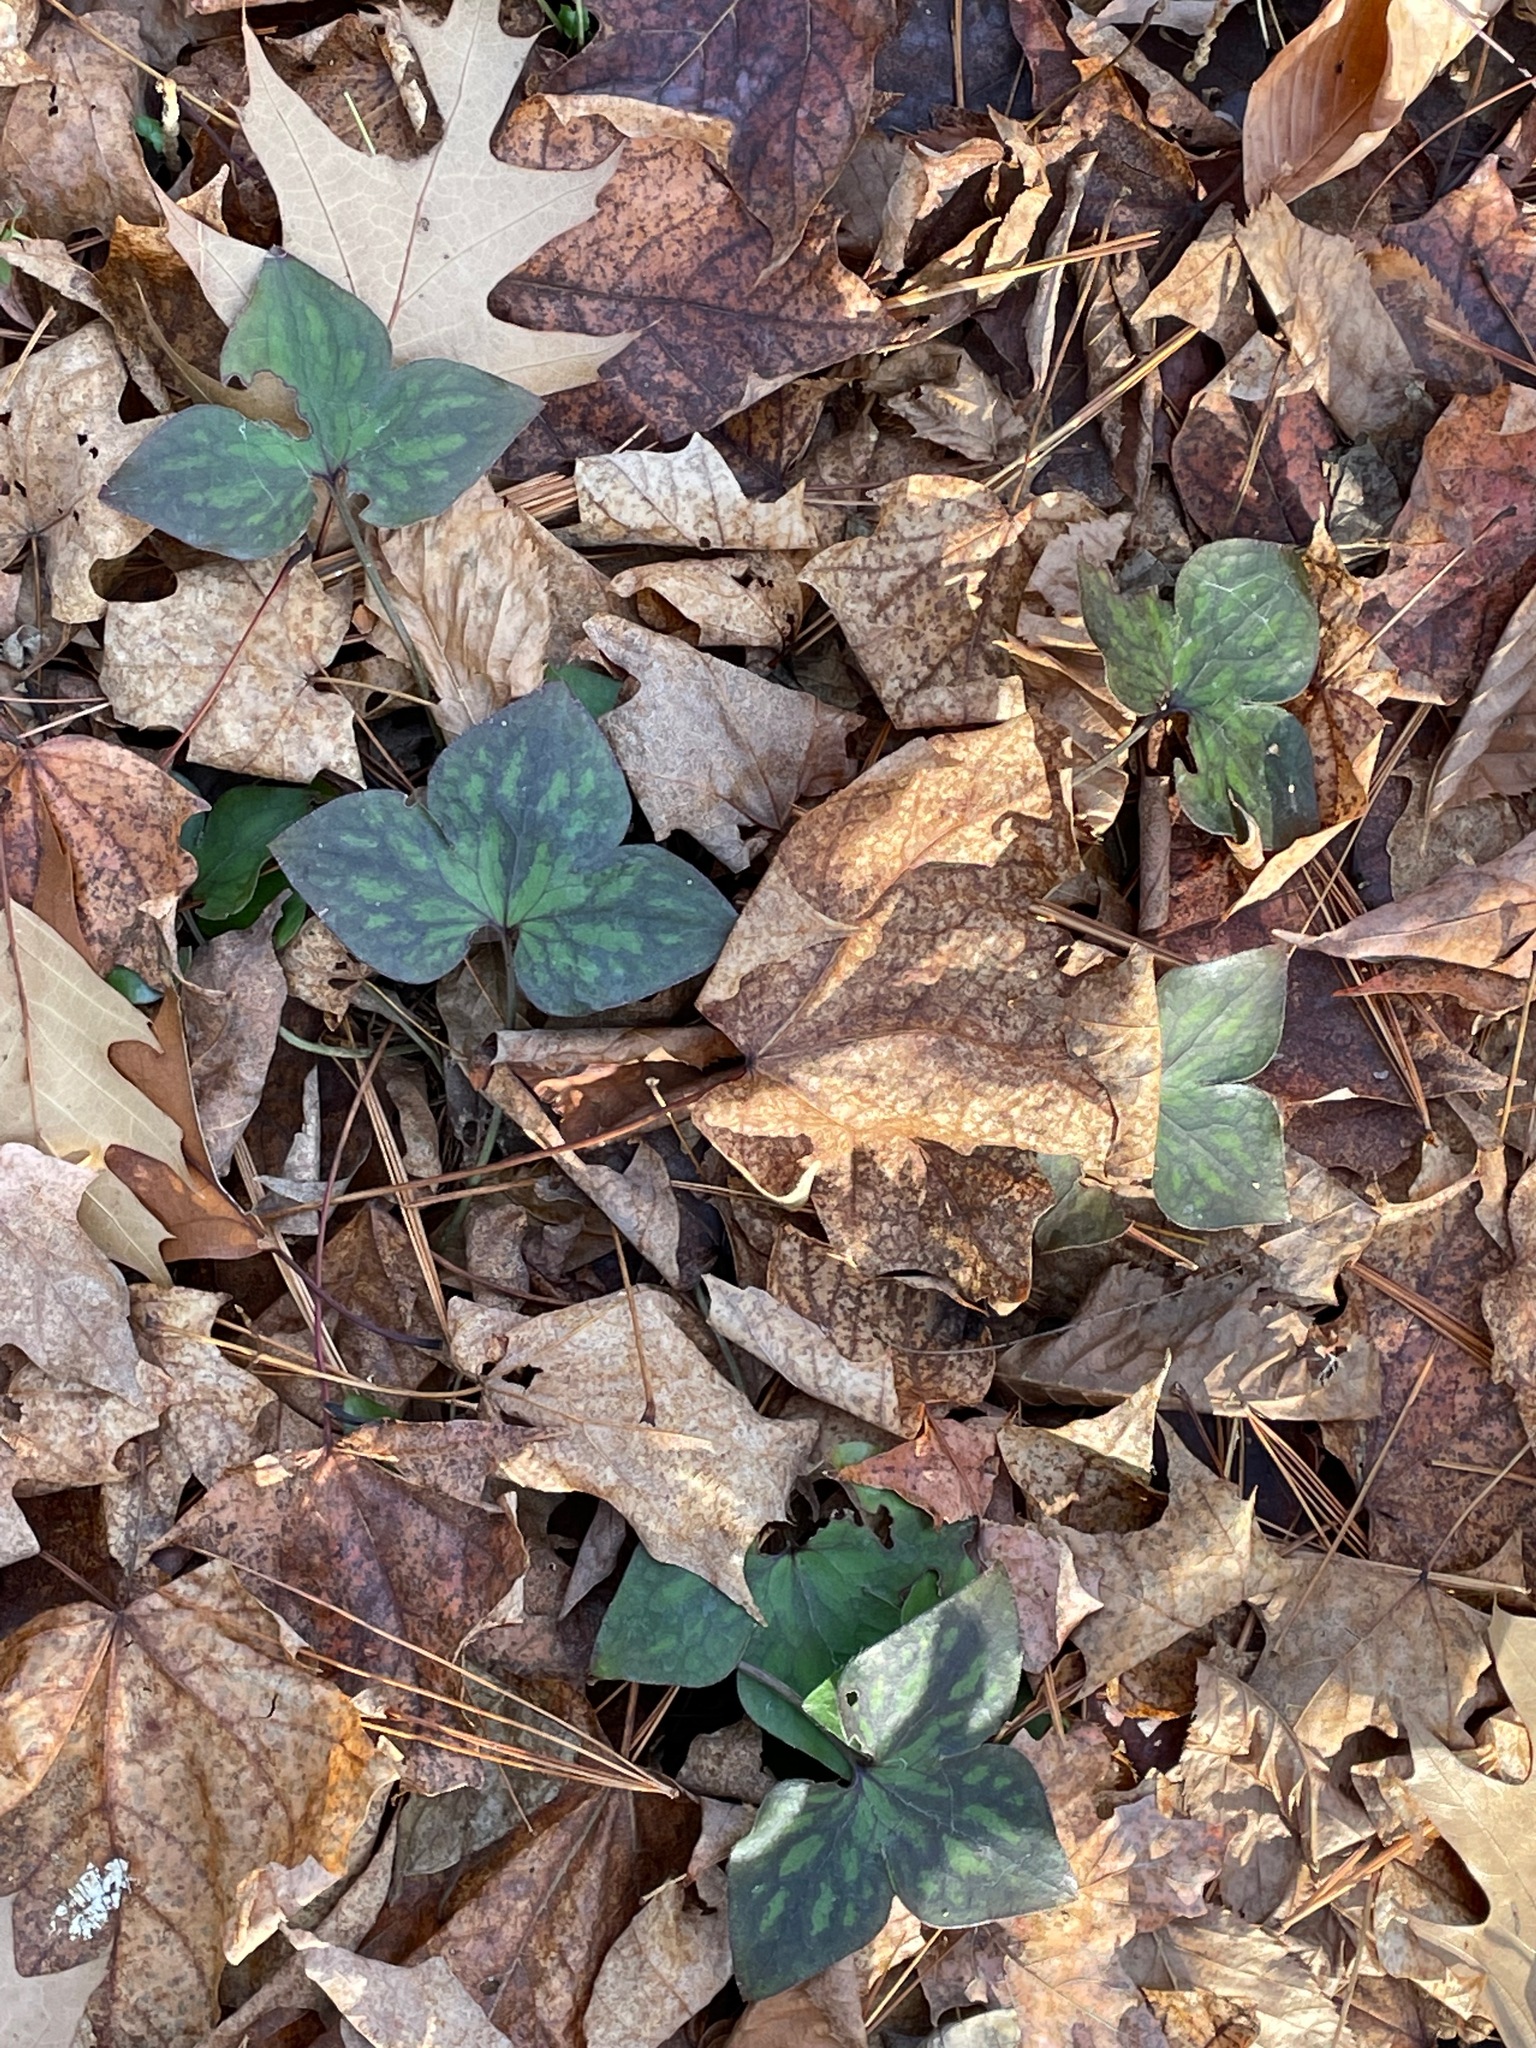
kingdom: Plantae
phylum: Tracheophyta
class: Magnoliopsida
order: Ranunculales
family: Ranunculaceae
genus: Hepatica
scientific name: Hepatica acutiloba
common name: Sharp-lobed hepatica
